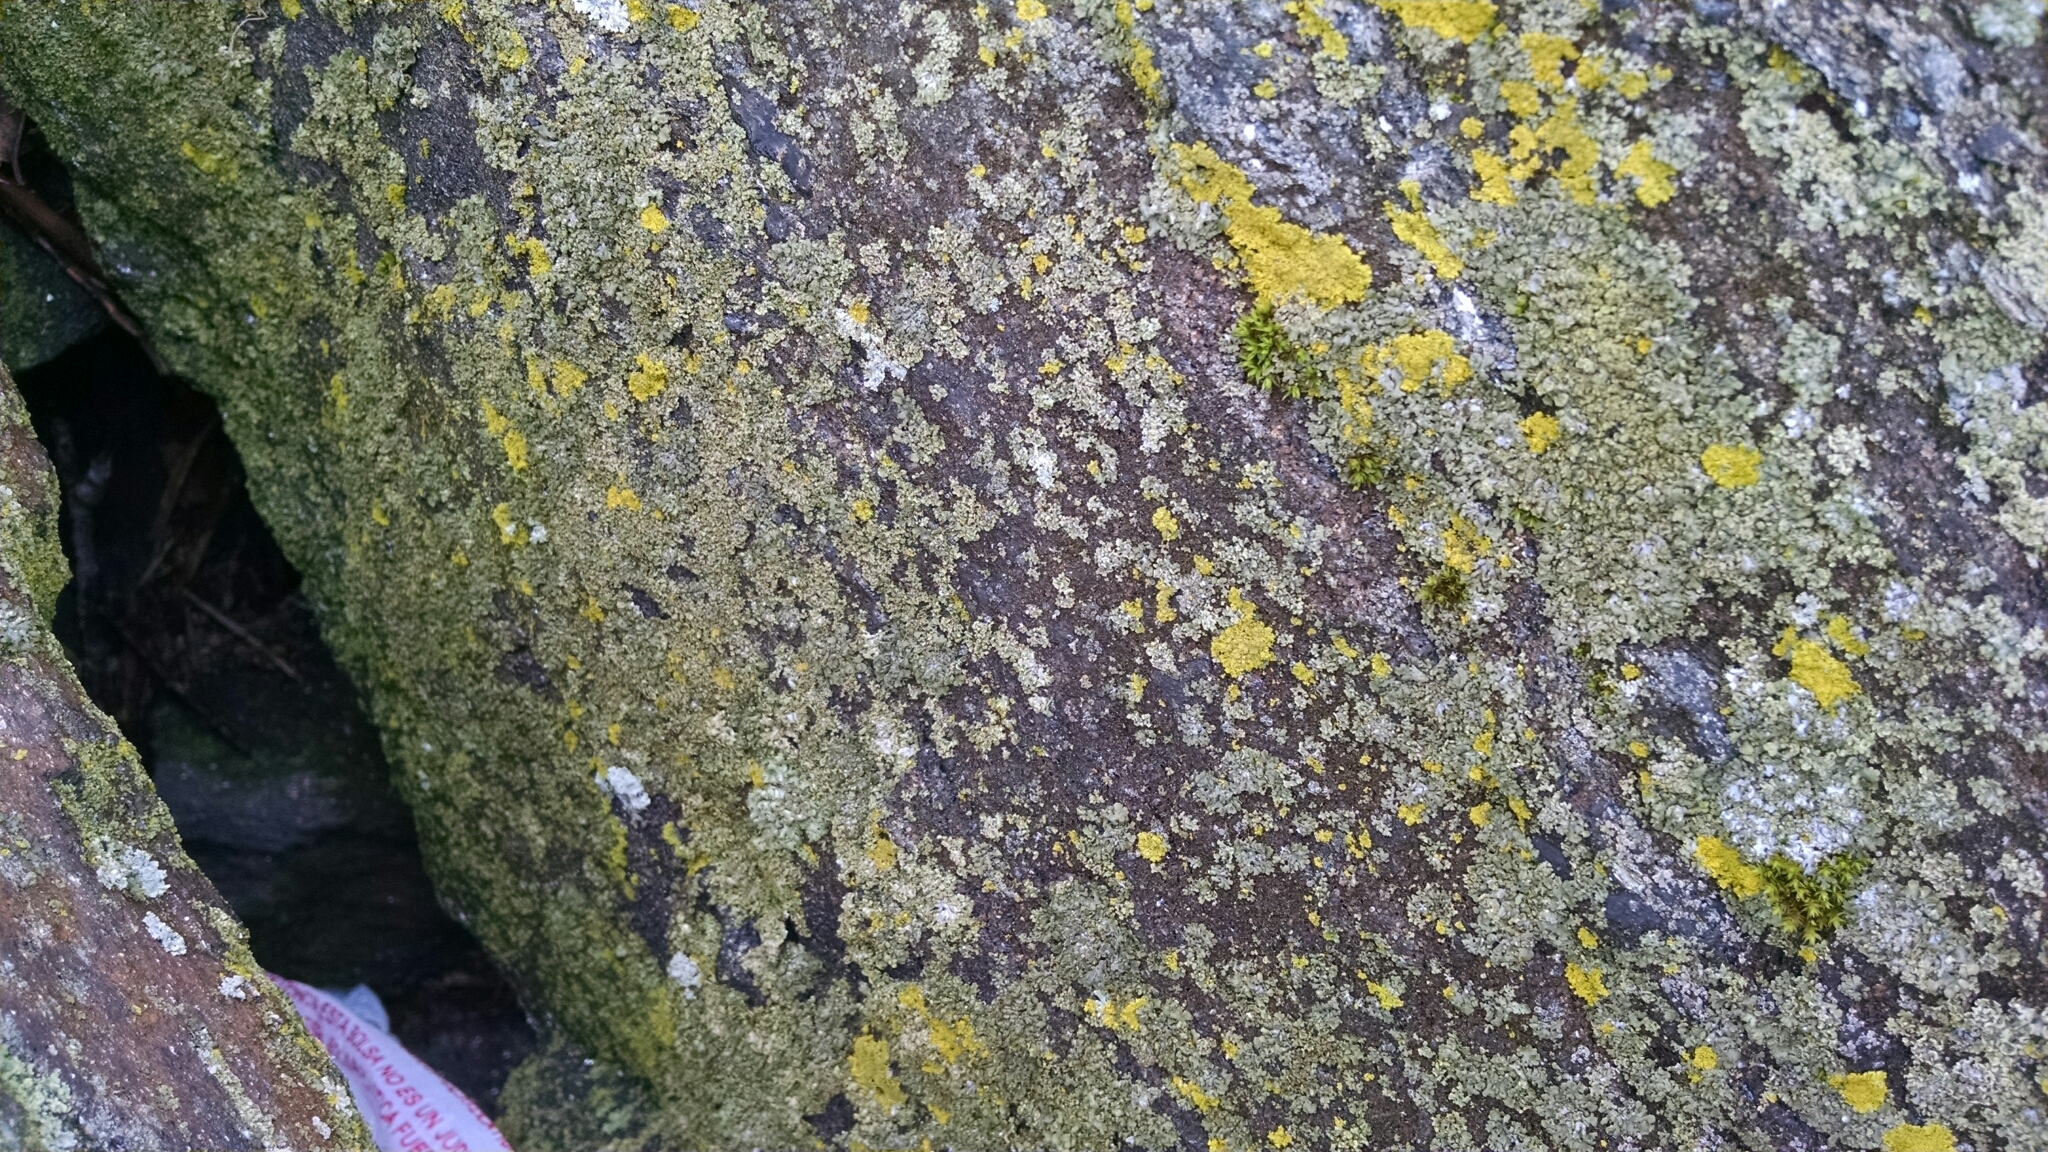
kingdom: Fungi
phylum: Ascomycota
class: Candelariomycetes
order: Candelariales
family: Candelariaceae
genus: Candelaria
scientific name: Candelaria concolor
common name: Candleflame lichen
